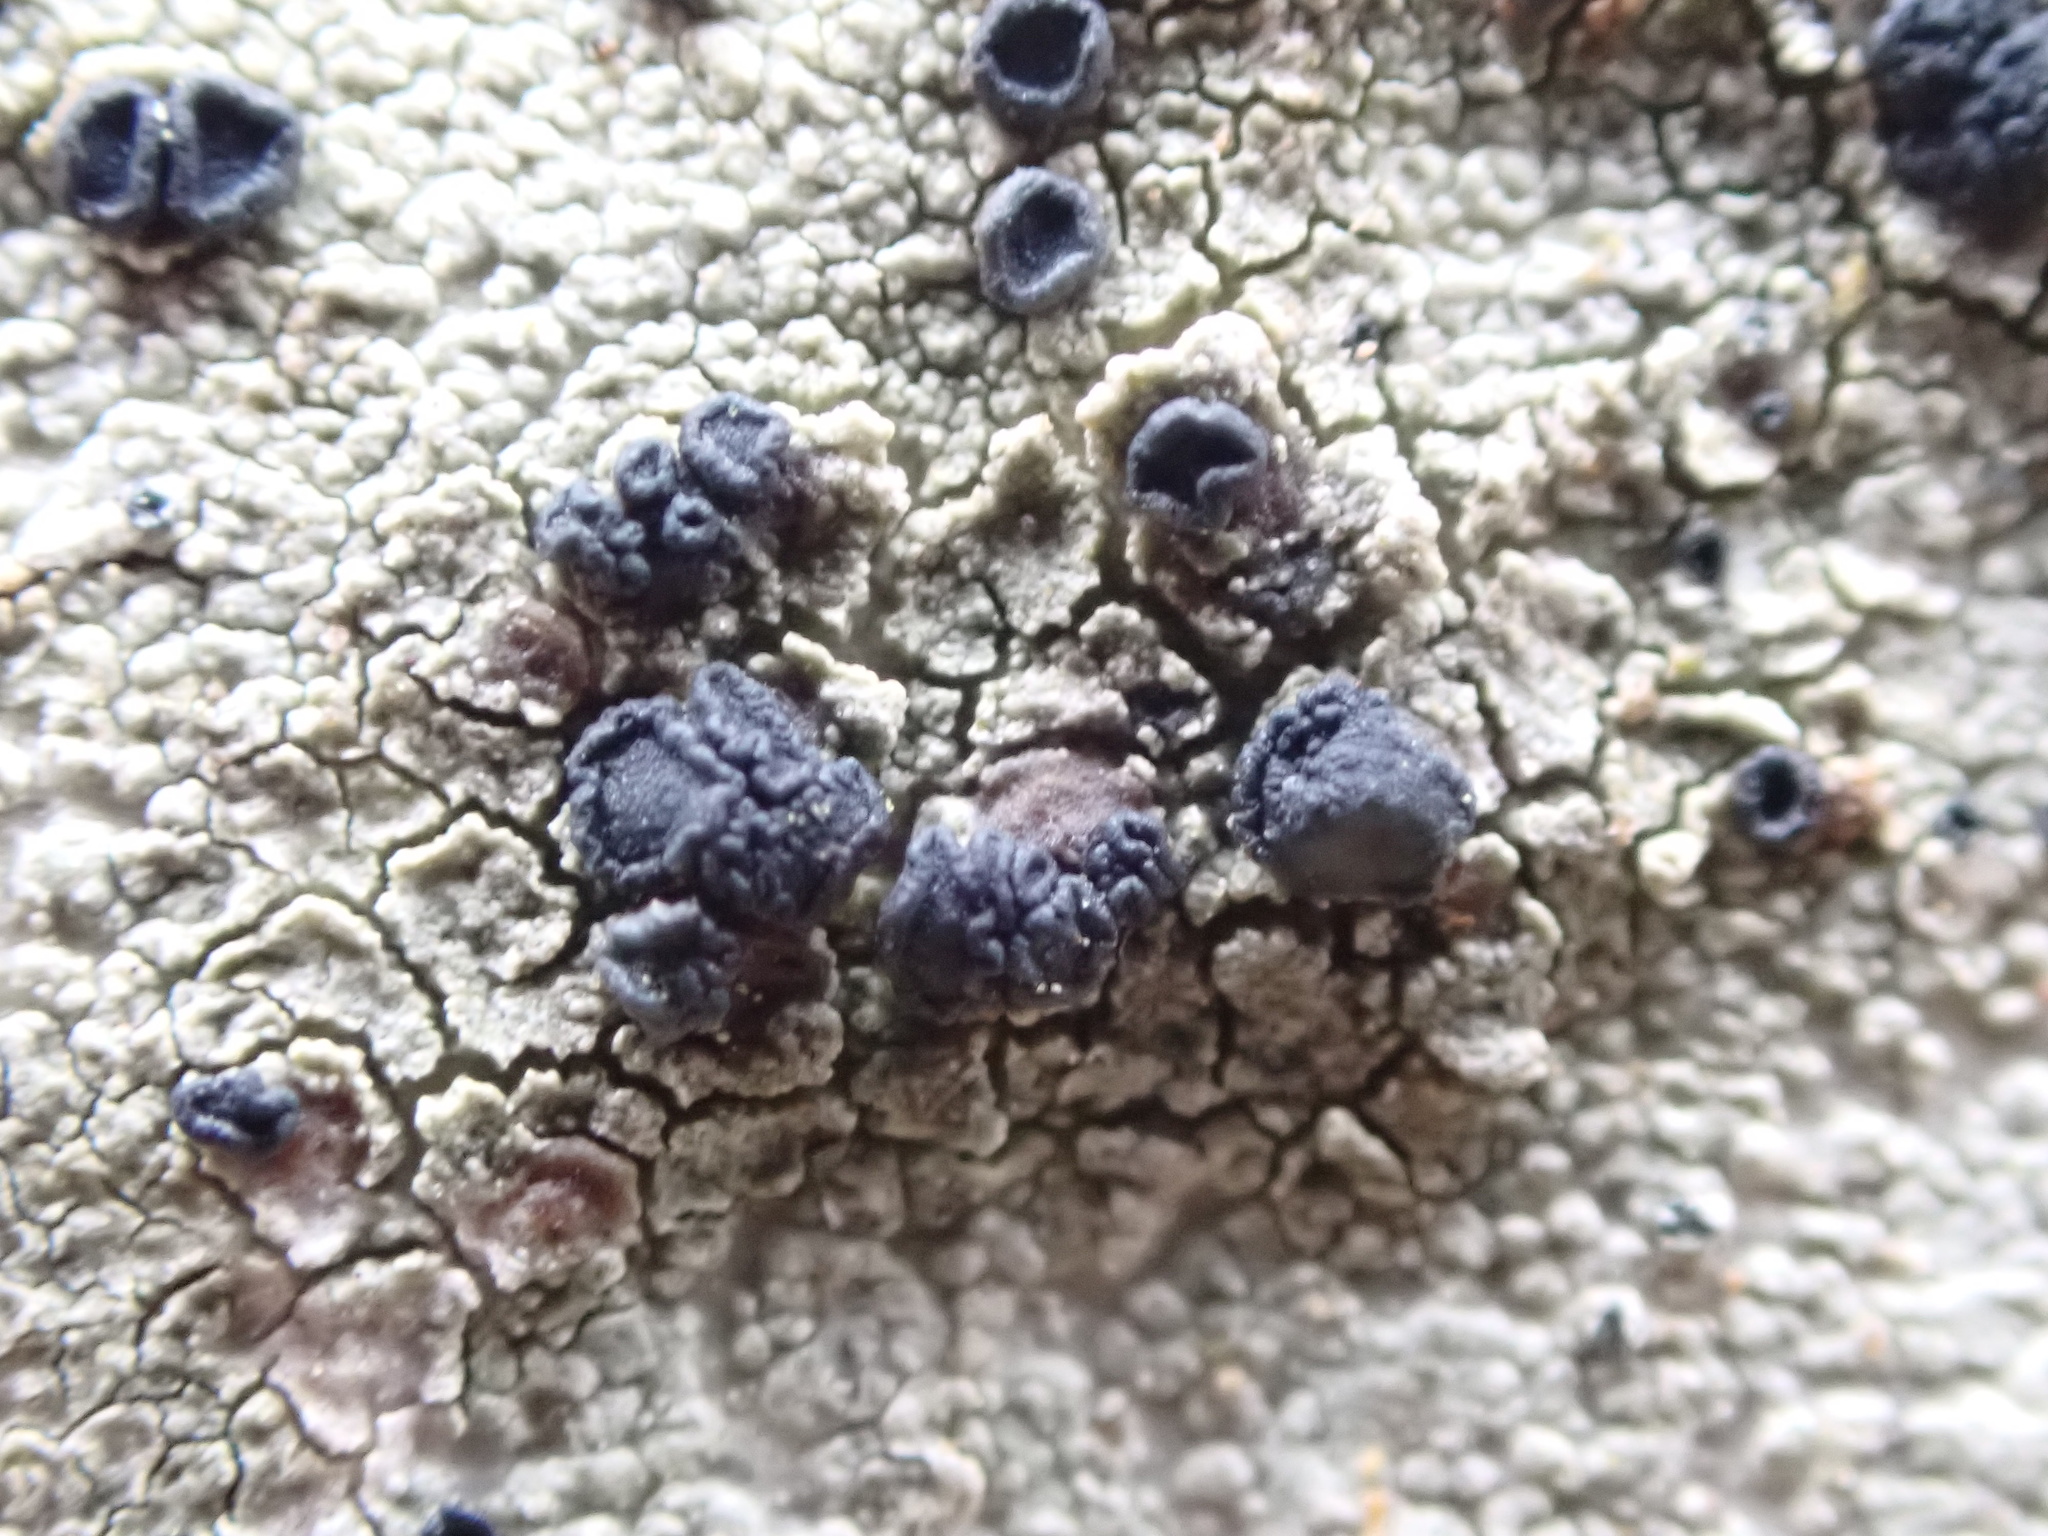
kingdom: Fungi
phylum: Ascomycota
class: Lecanoromycetes
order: Lecanorales
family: Lecanoraceae
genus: Lecidella
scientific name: Lecidella elaeochroma
